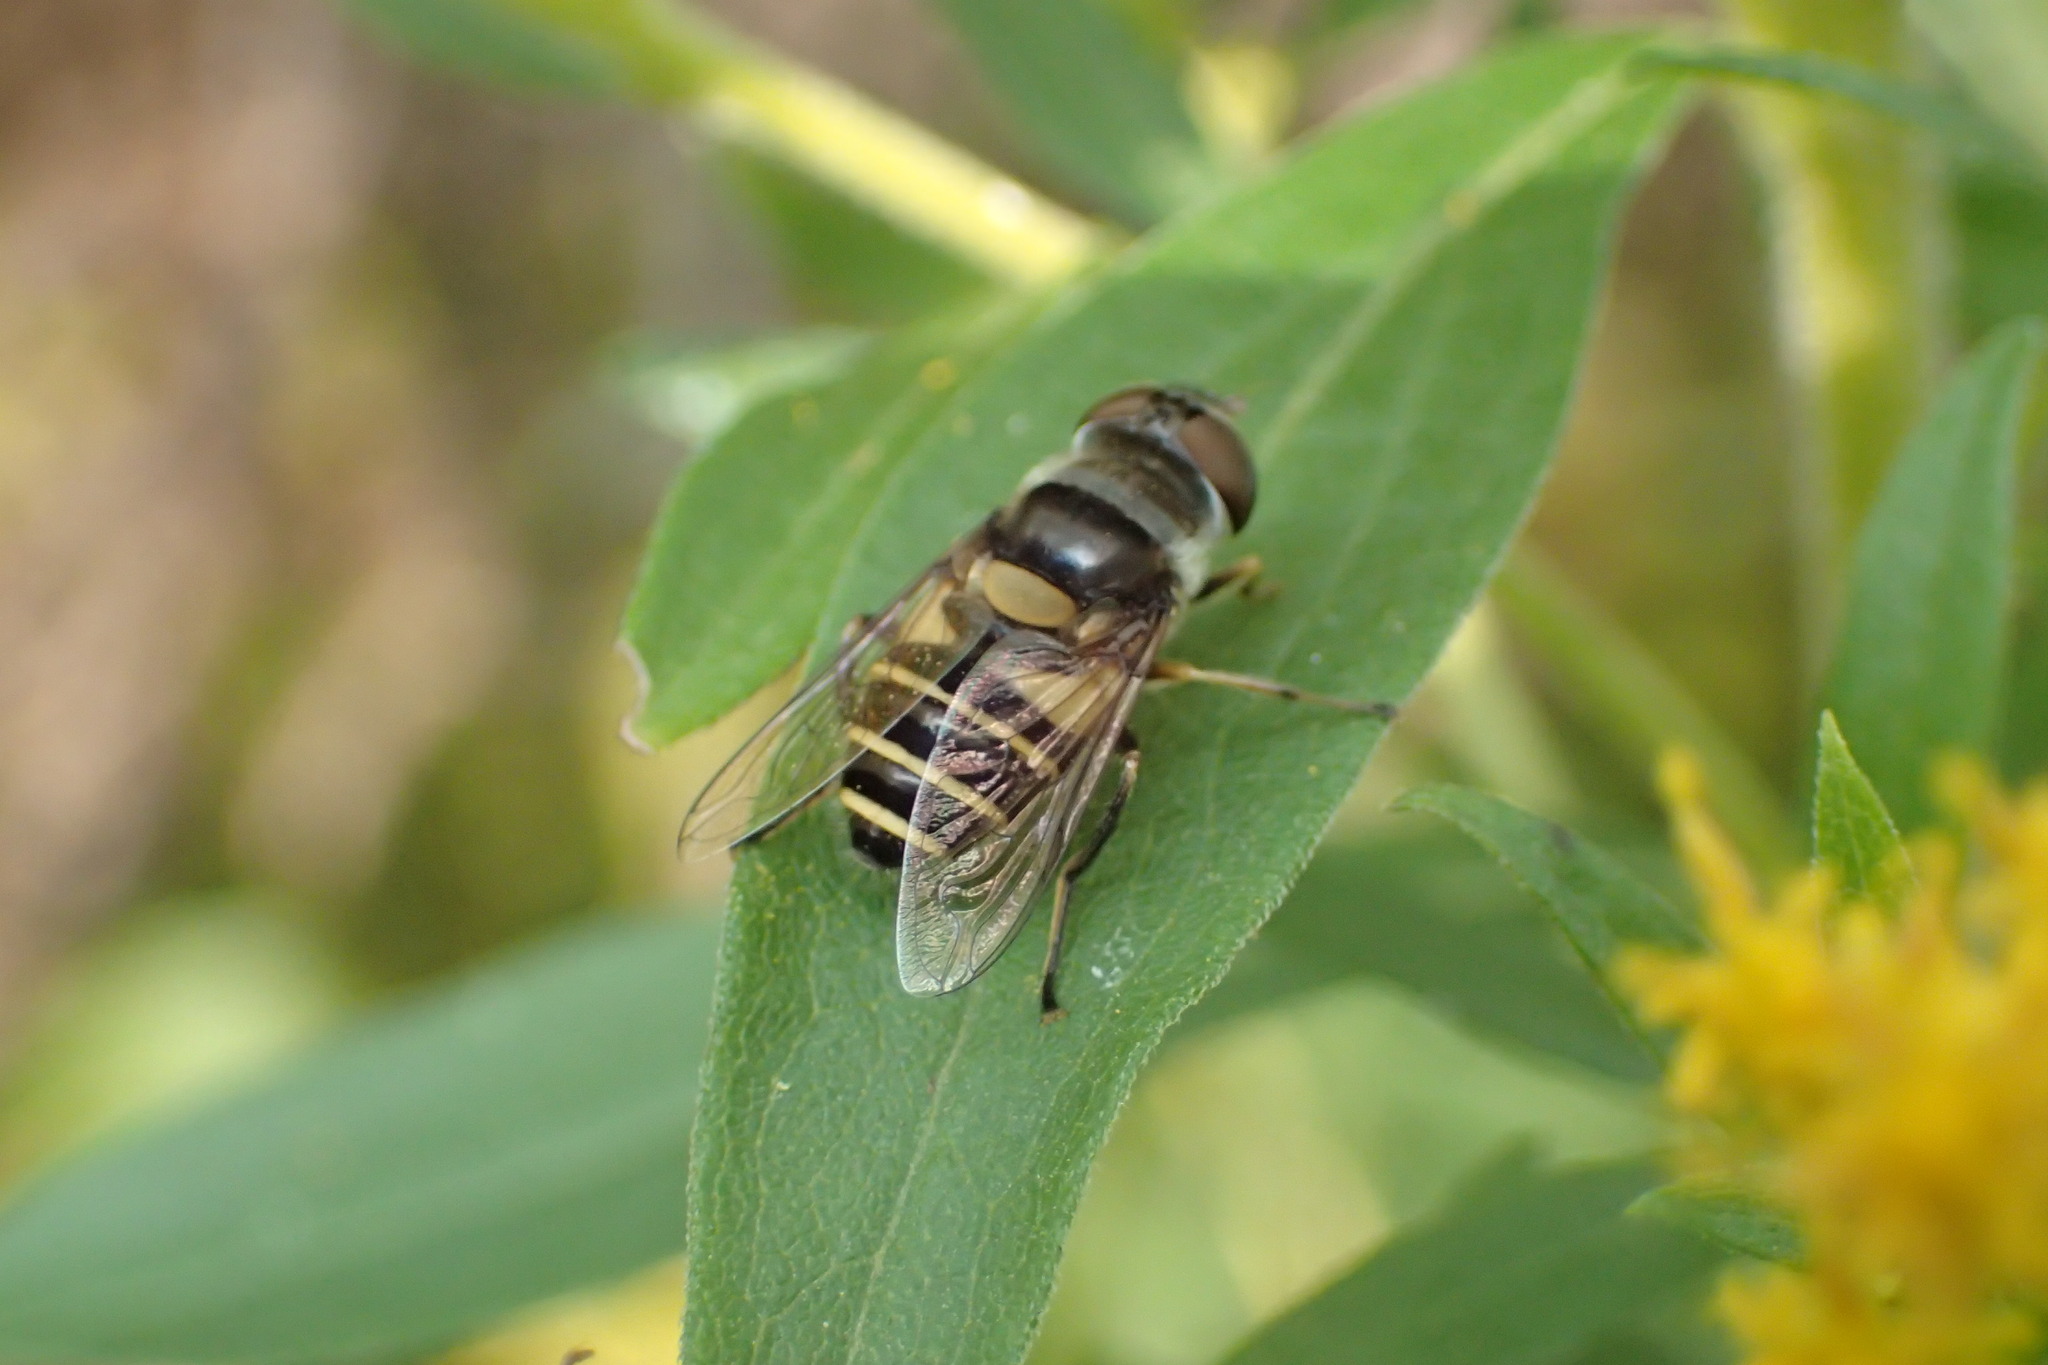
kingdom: Animalia
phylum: Arthropoda
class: Insecta
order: Diptera
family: Syrphidae
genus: Eristalis
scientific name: Eristalis transversa
